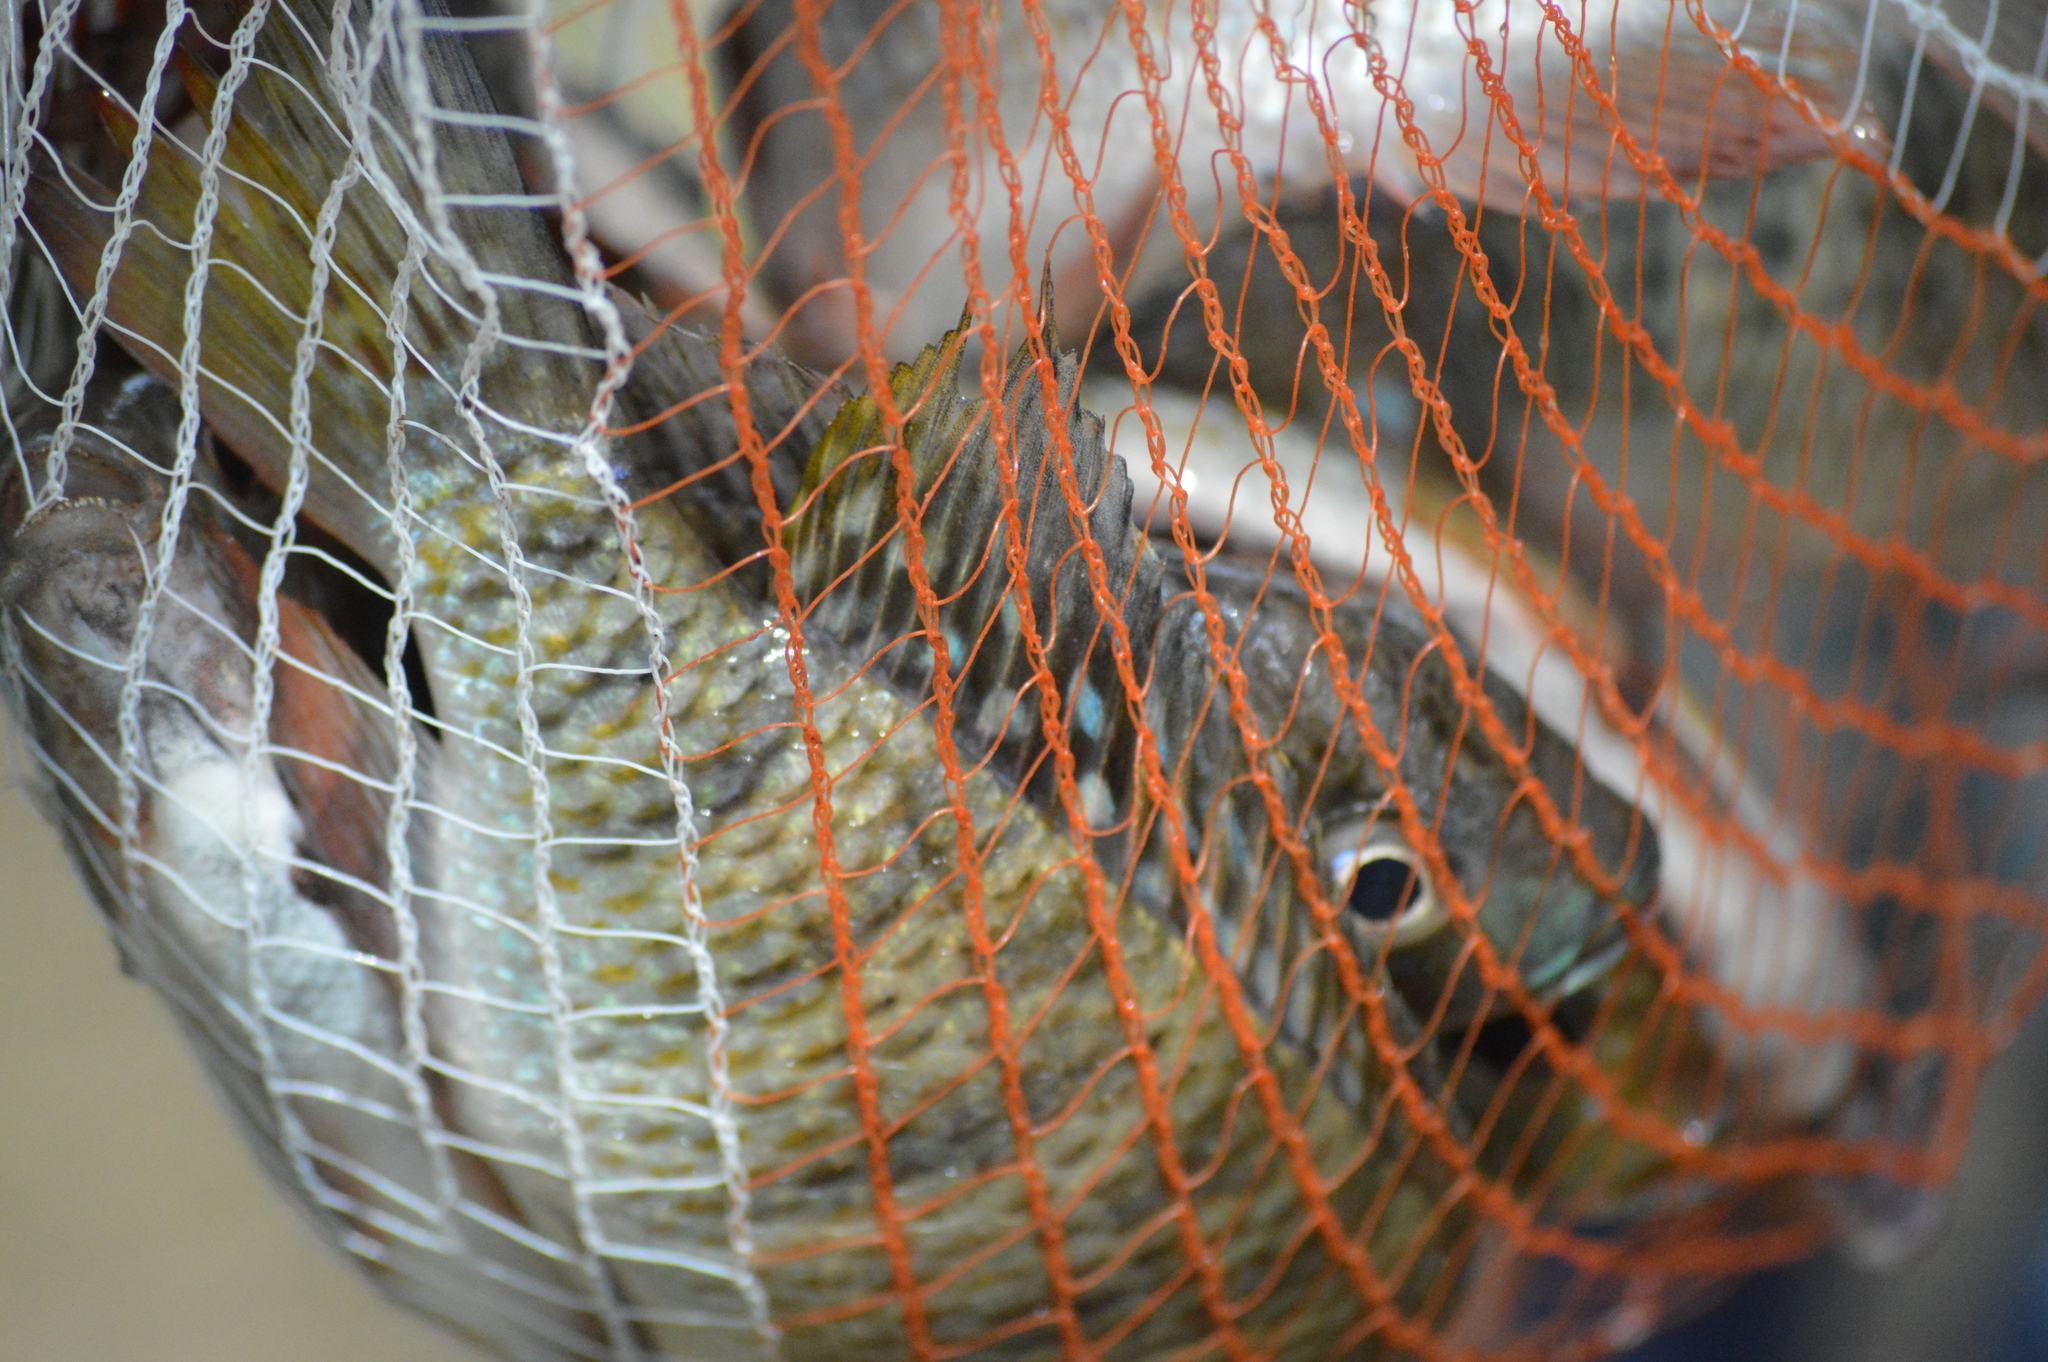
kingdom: Animalia
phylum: Chordata
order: Perciformes
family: Cichlidae
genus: Coptodon
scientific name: Coptodon rendalli
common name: Redbreast tilapia
